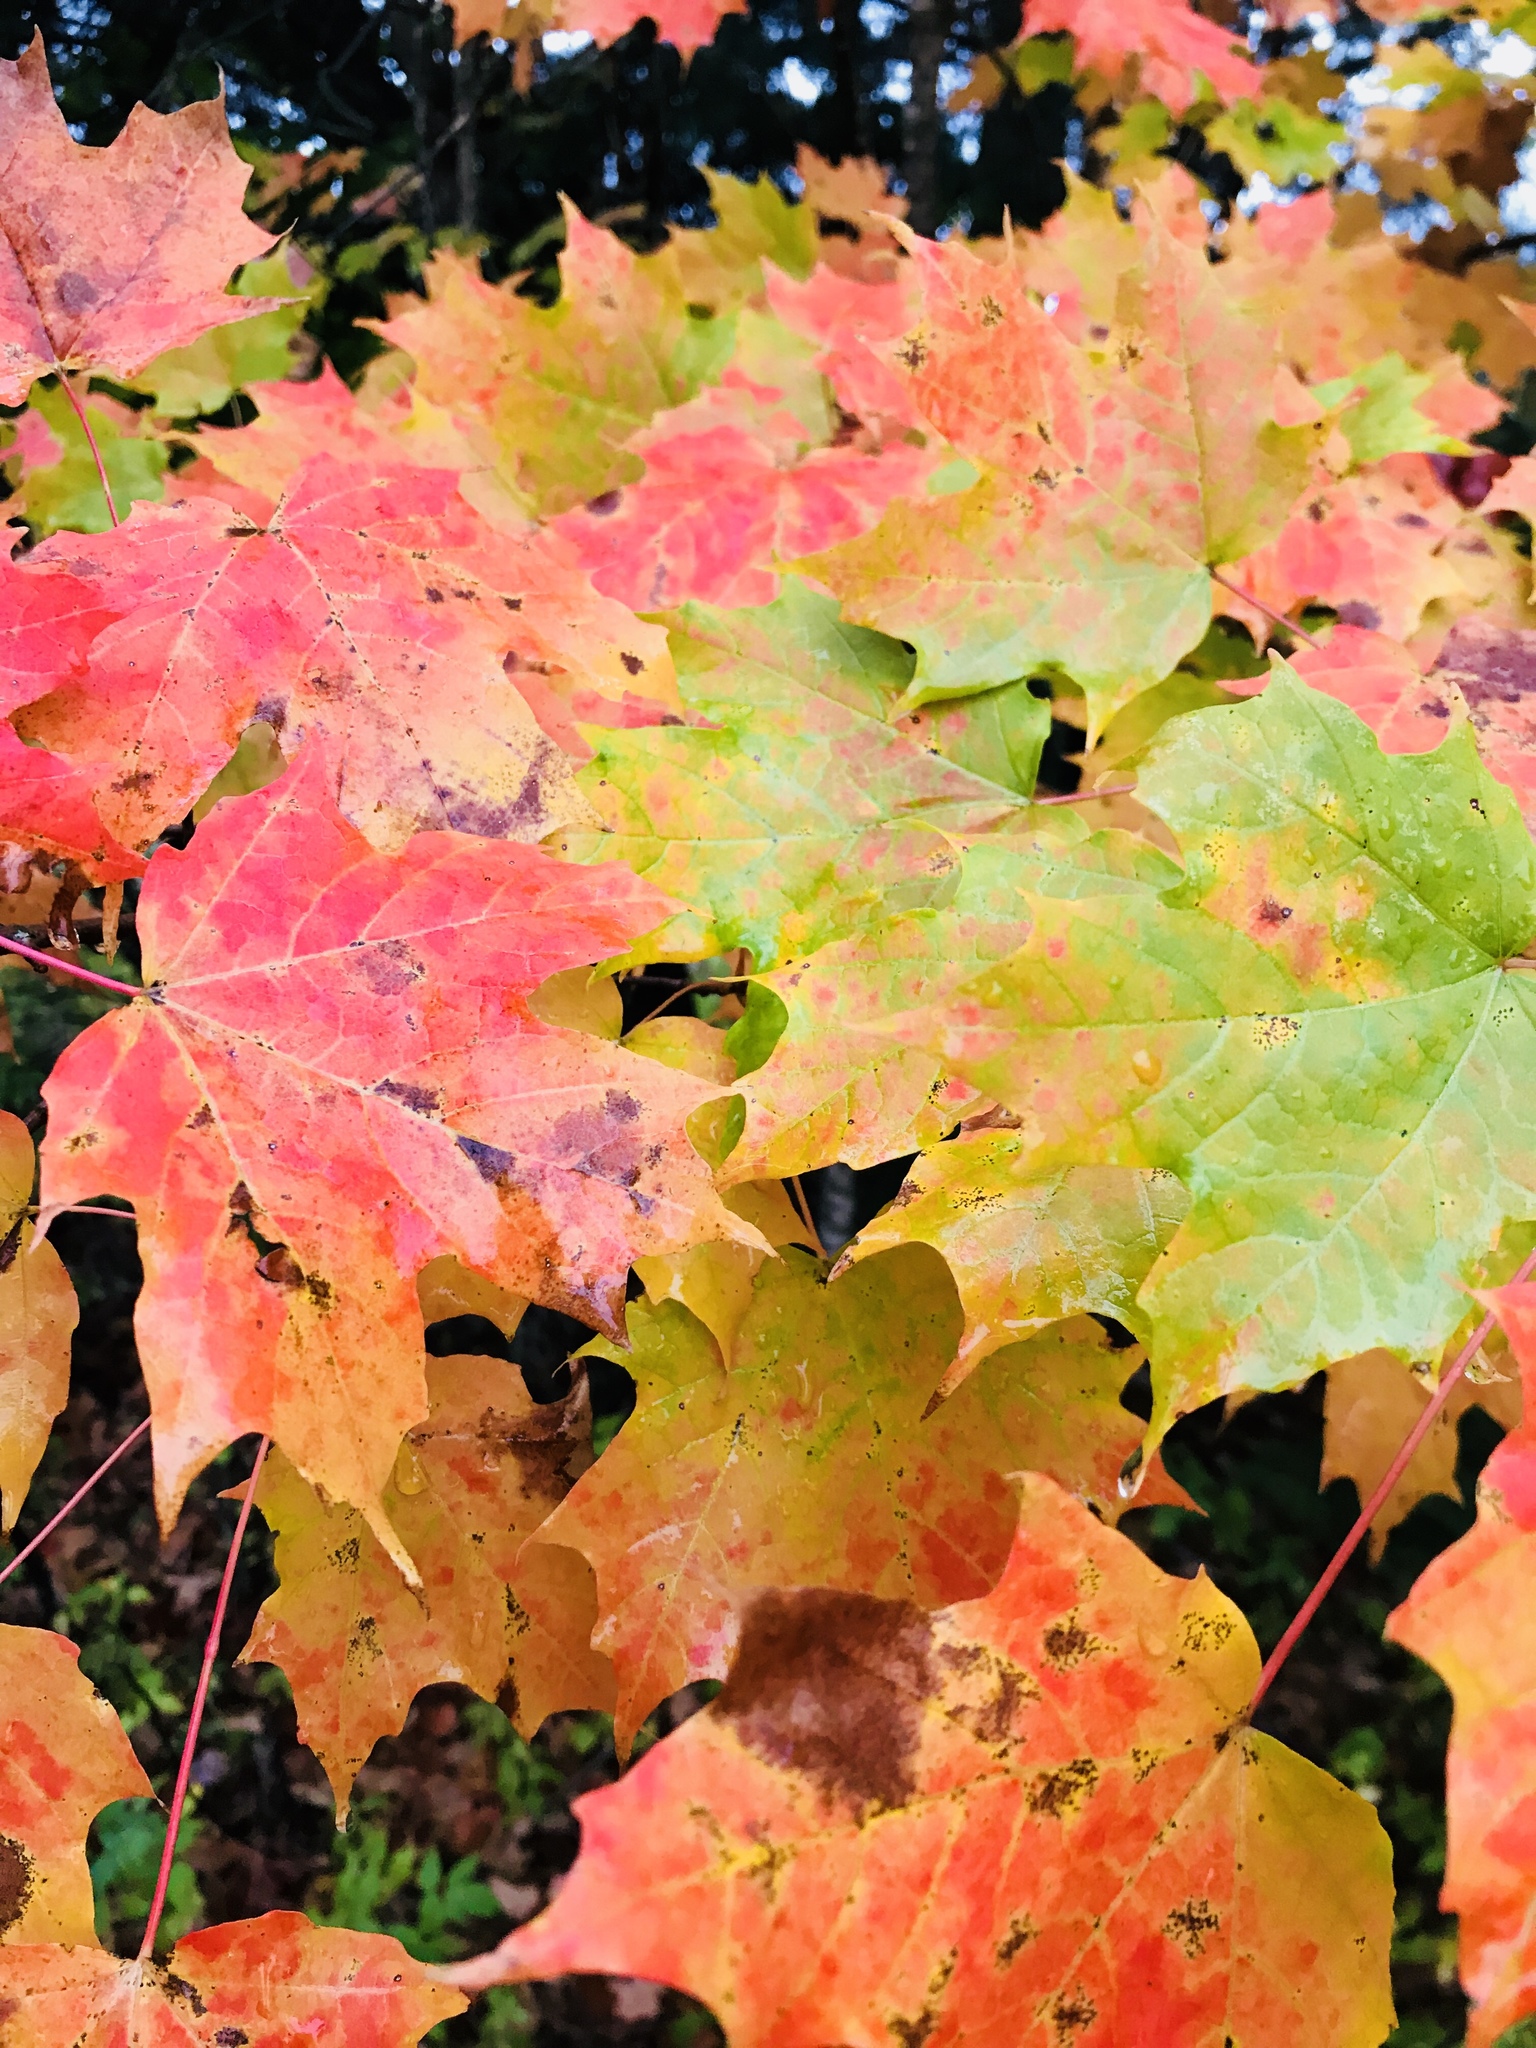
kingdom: Plantae
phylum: Tracheophyta
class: Magnoliopsida
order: Sapindales
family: Sapindaceae
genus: Acer
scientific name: Acer saccharum
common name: Sugar maple
